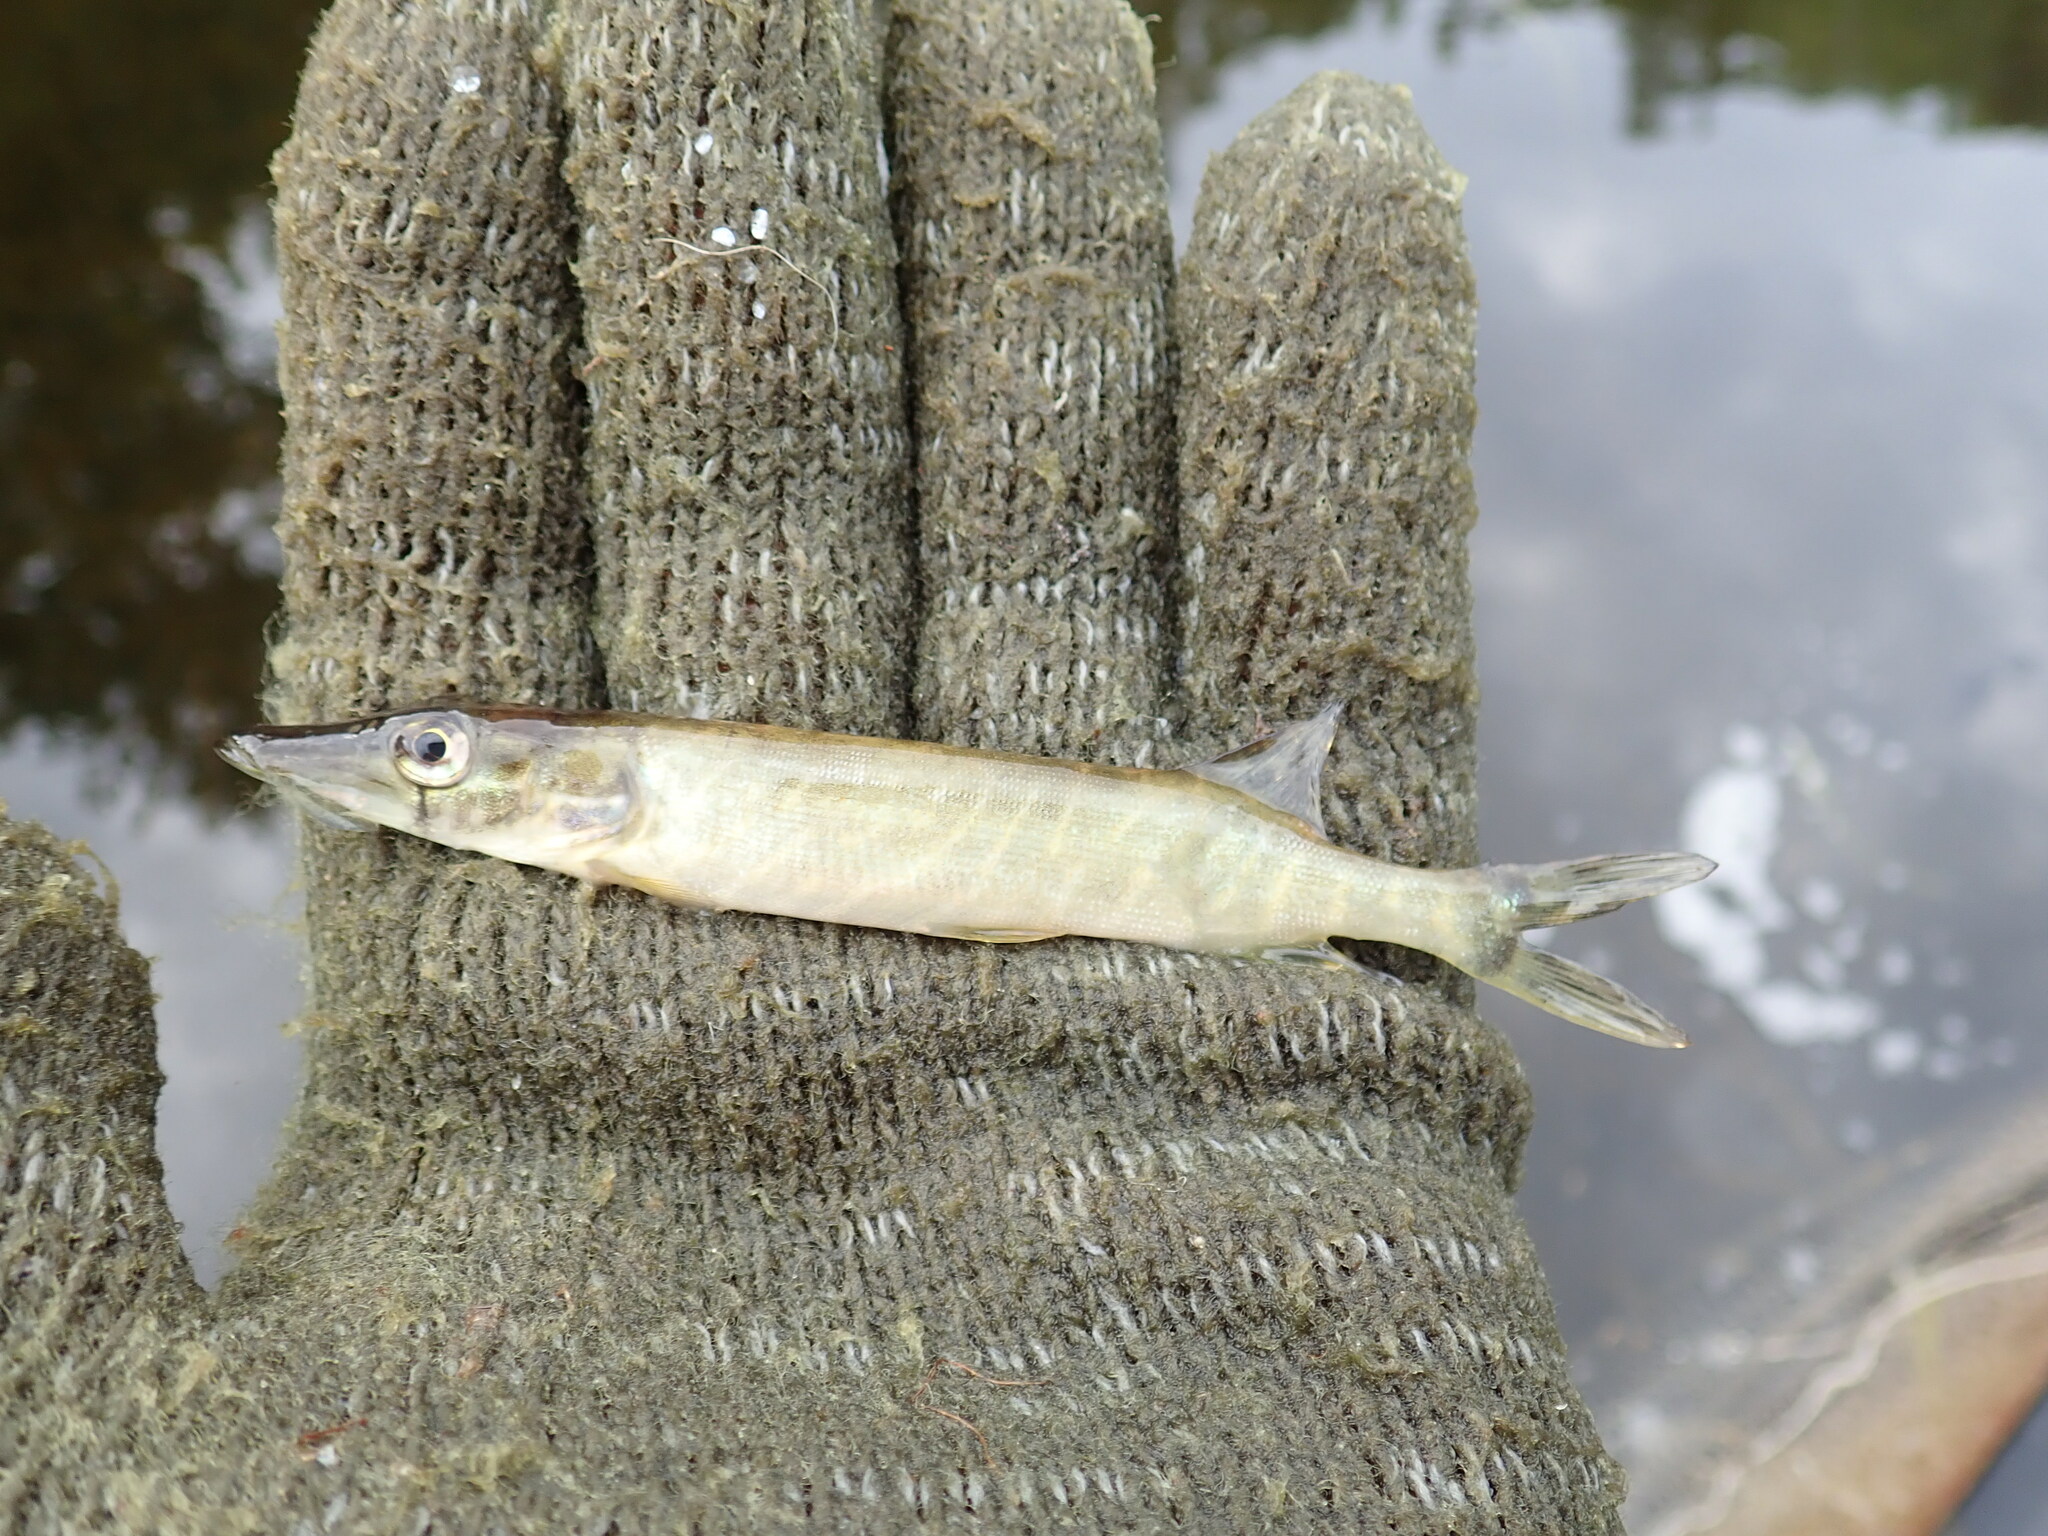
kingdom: Animalia
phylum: Chordata
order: Esociformes
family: Esocidae
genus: Esox
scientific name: Esox lucius
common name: Northern pike
